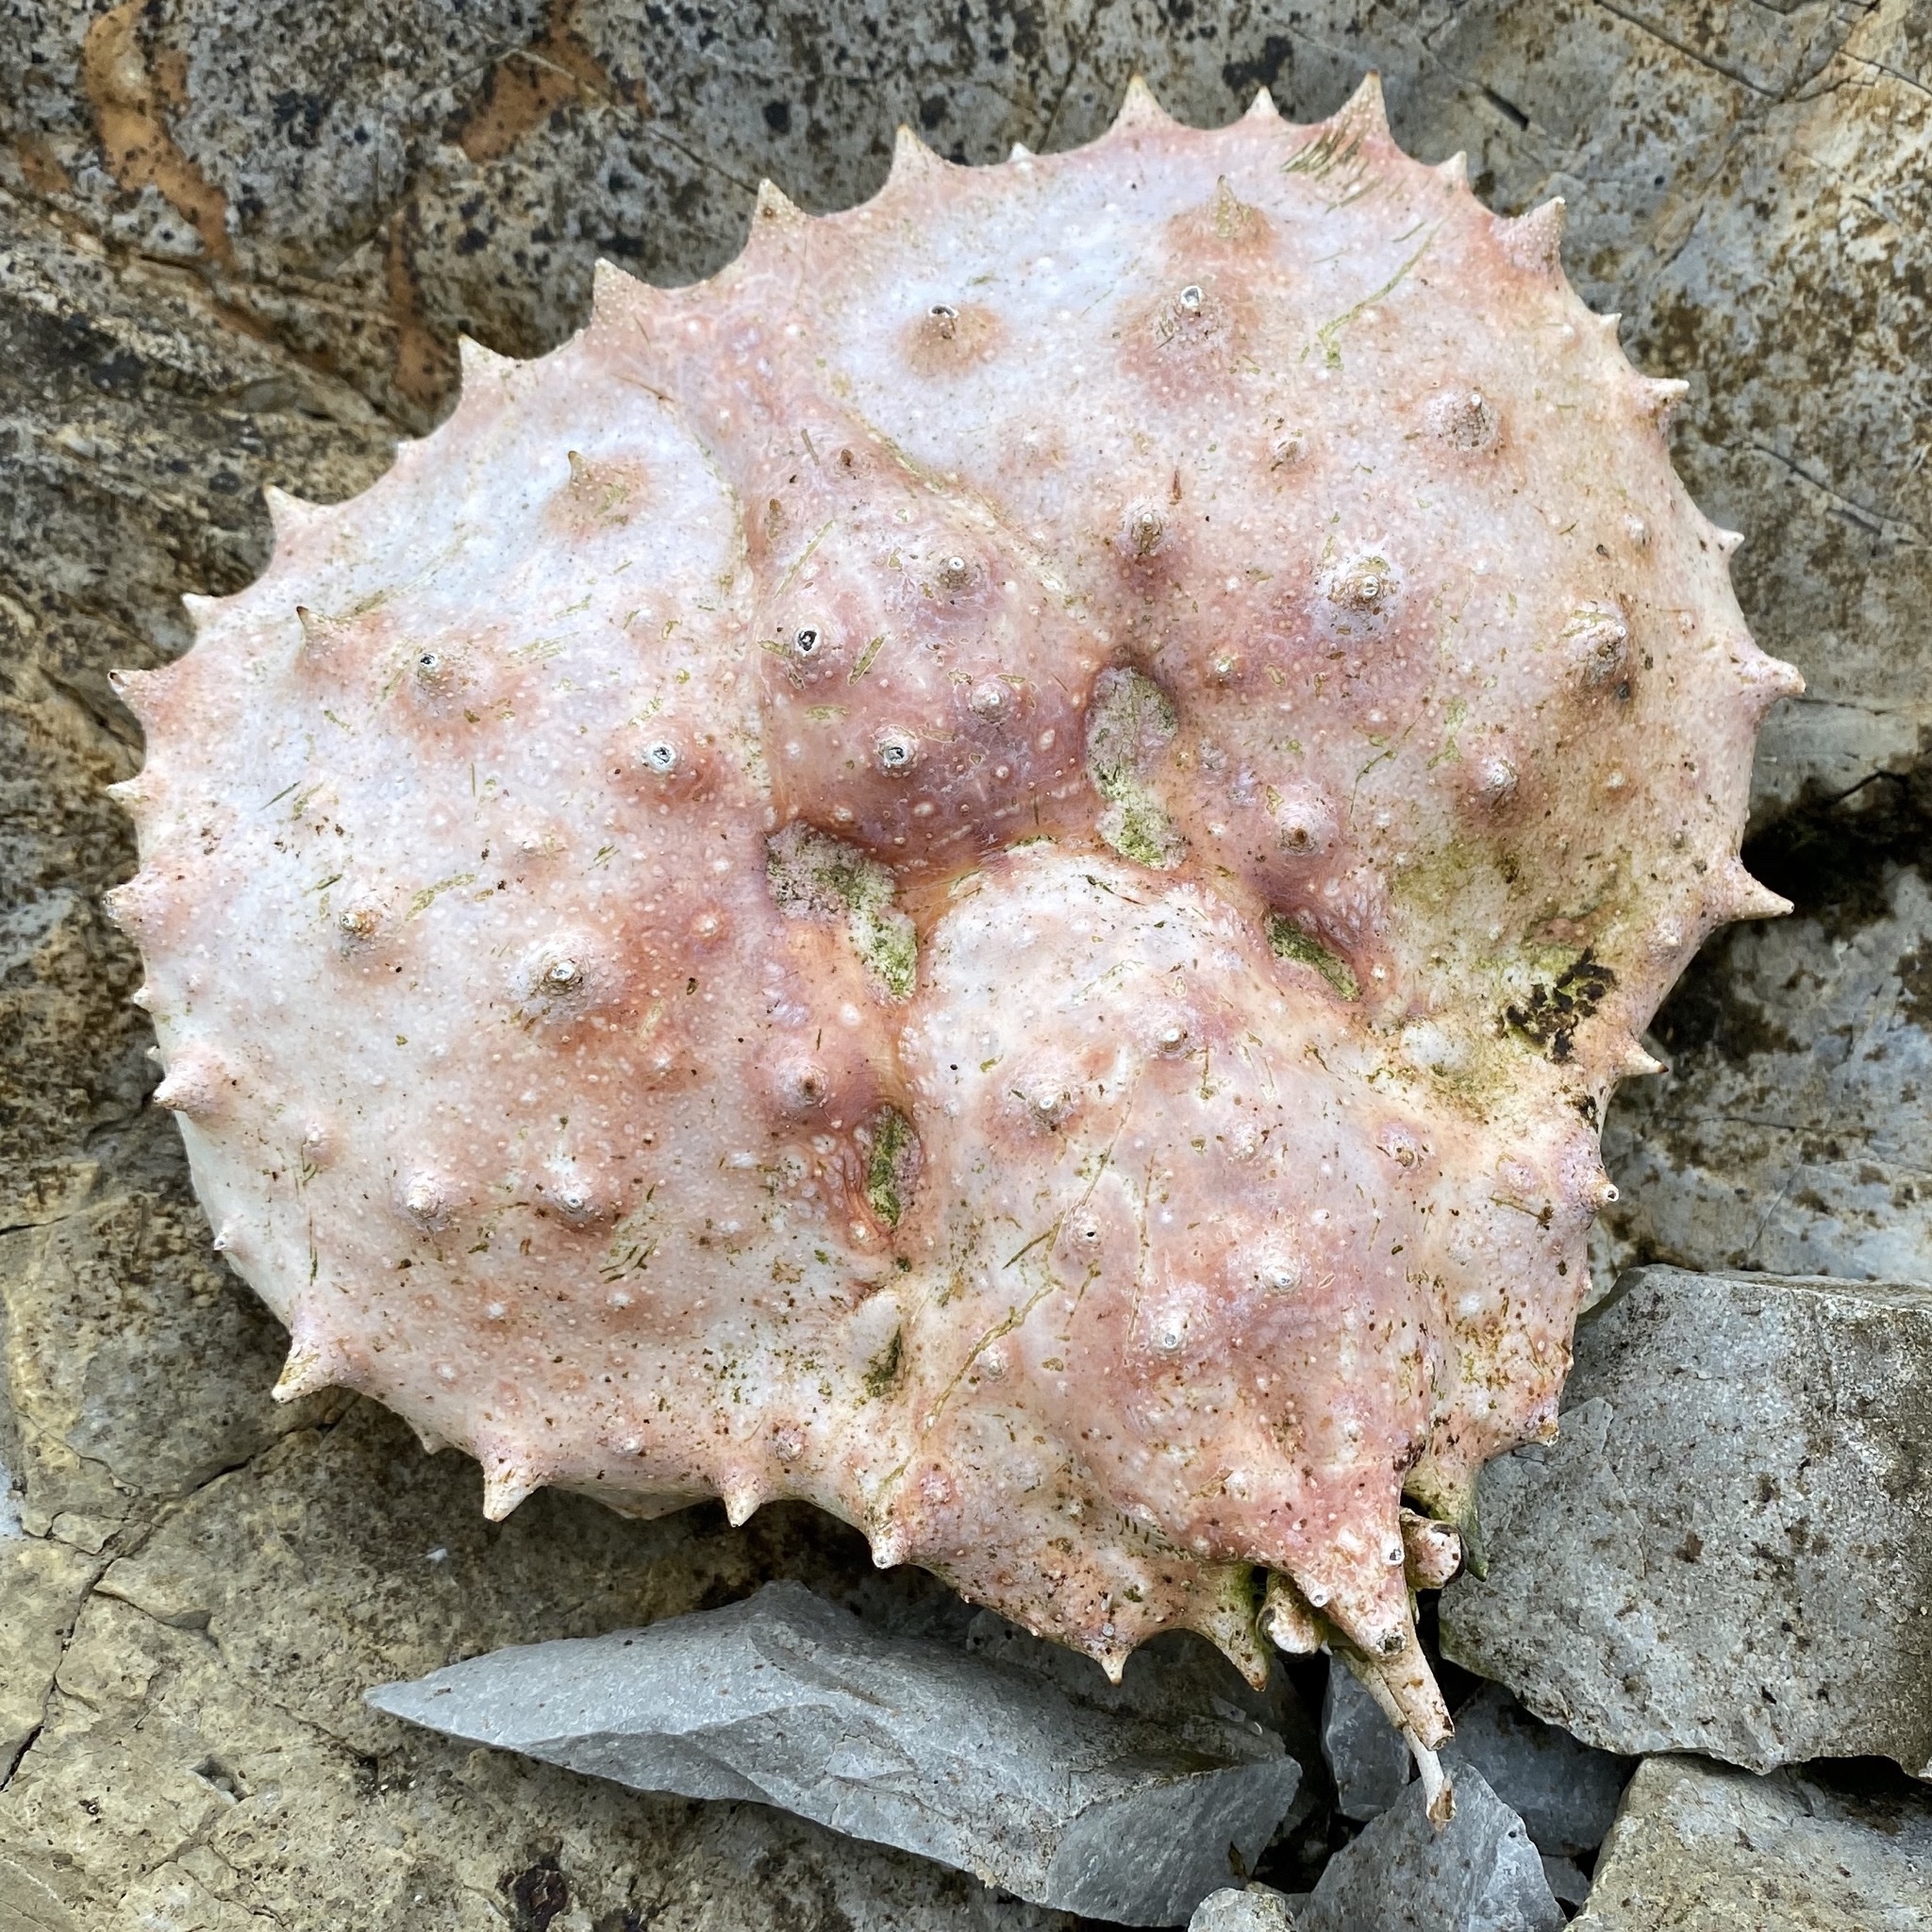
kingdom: Animalia
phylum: Arthropoda
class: Malacostraca
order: Decapoda
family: Lithodidae
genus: Paralithodes
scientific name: Paralithodes camtschaticus
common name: Alaskan king crab
